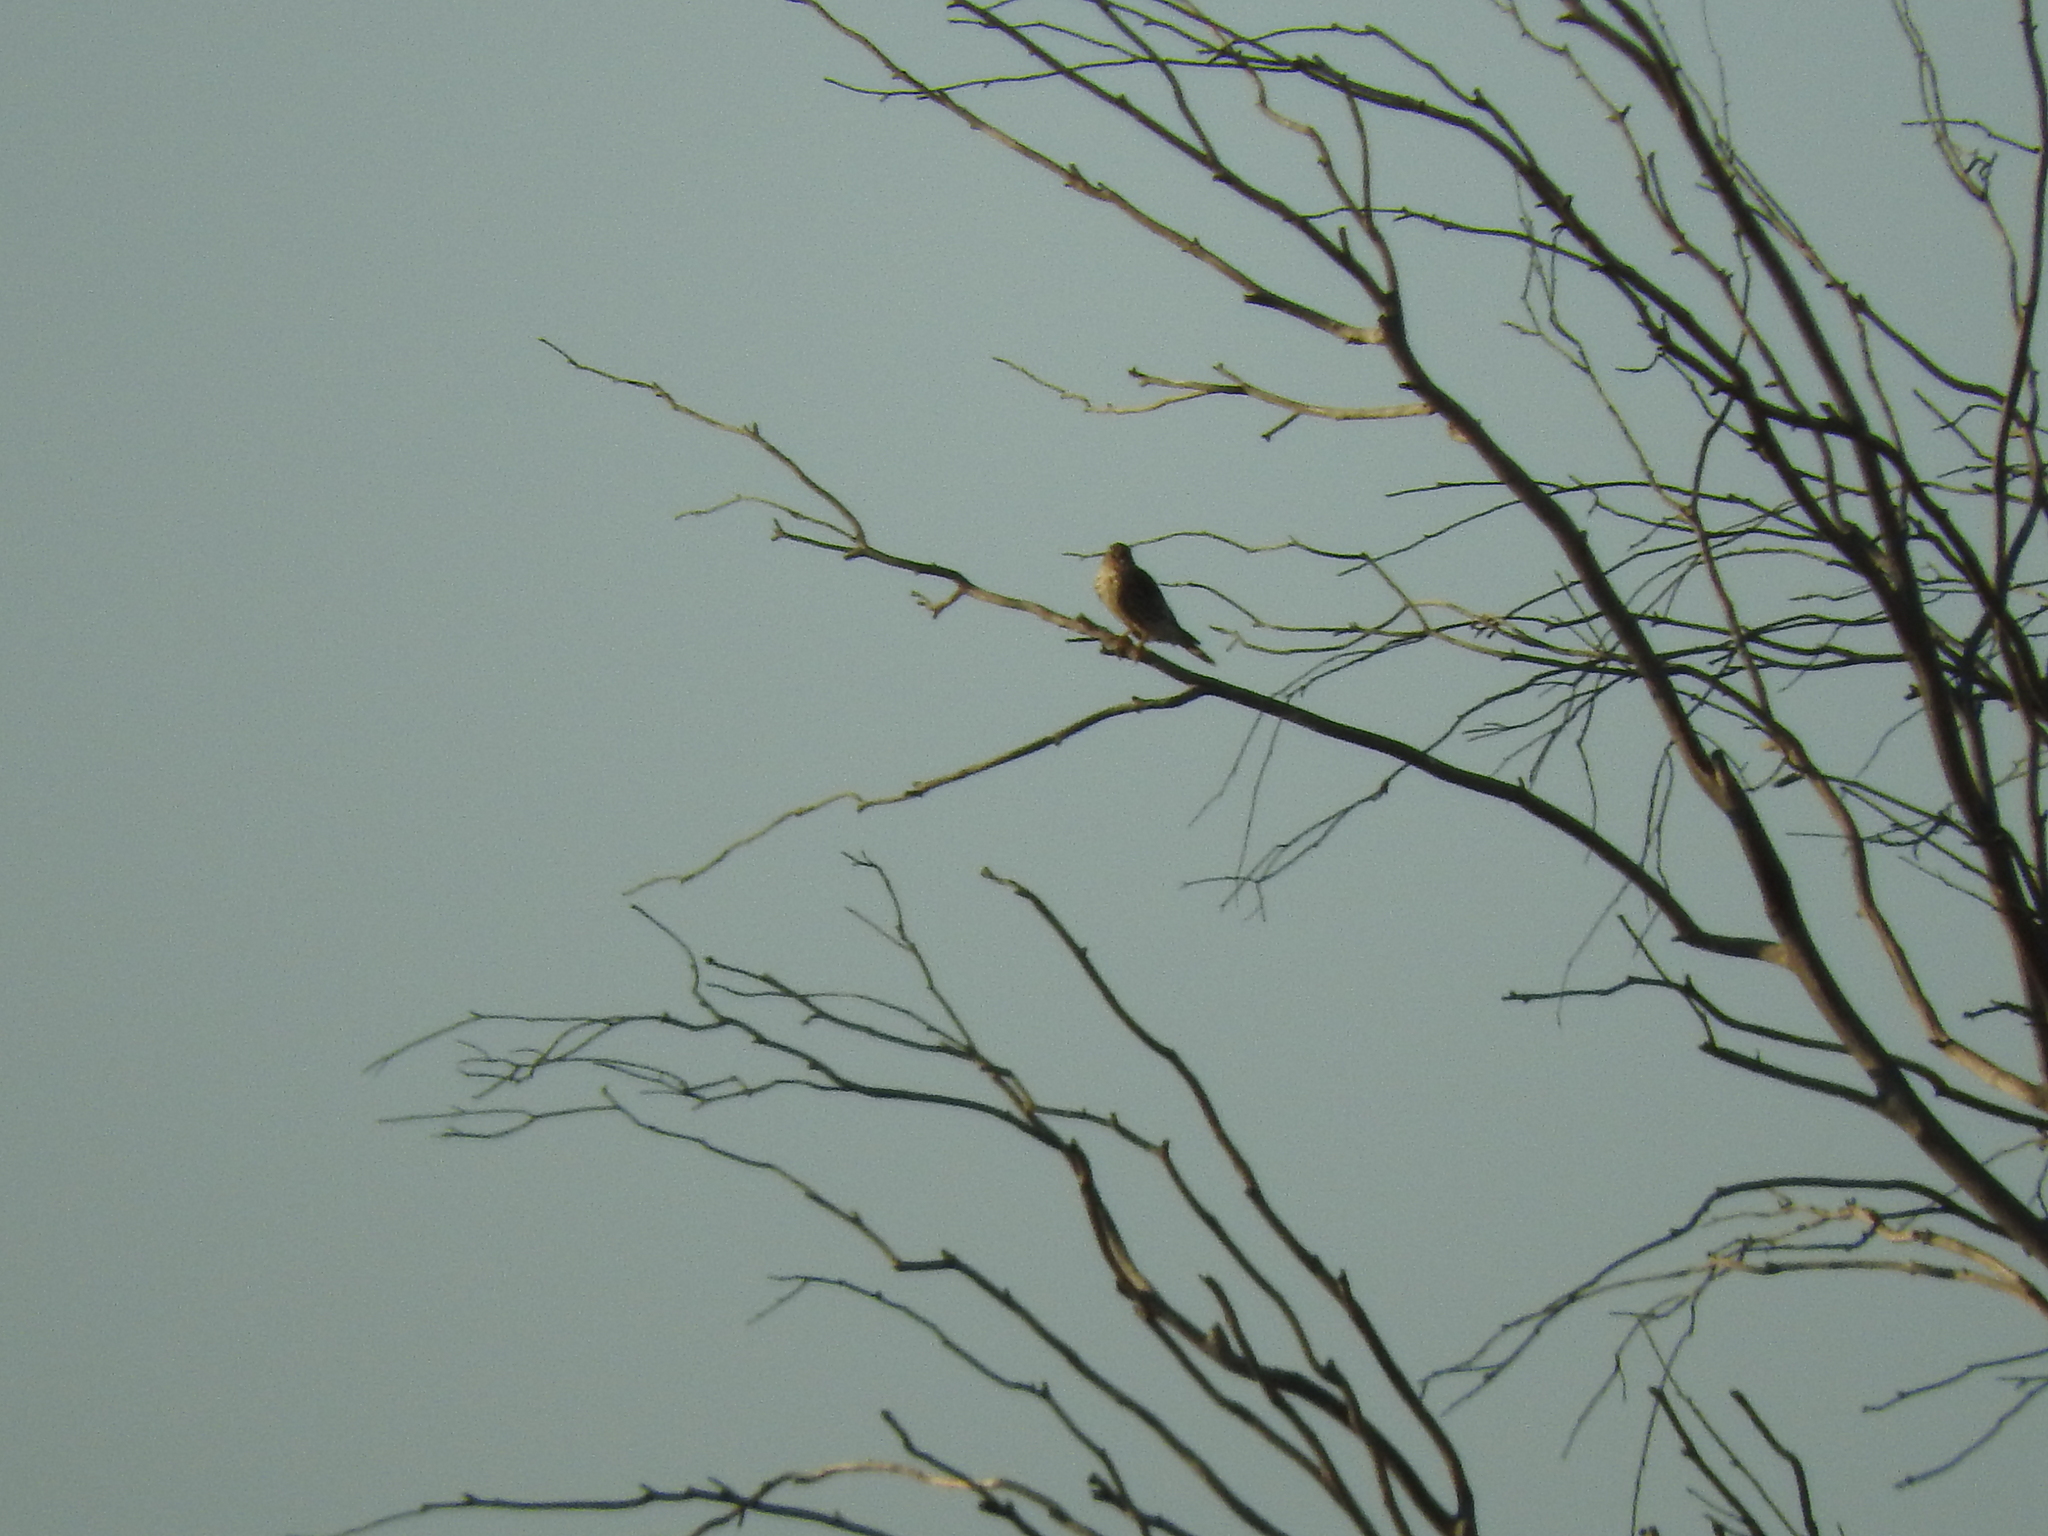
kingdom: Animalia
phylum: Chordata
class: Aves
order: Falconiformes
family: Falconidae
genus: Falco
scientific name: Falco columbarius
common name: Merlin
